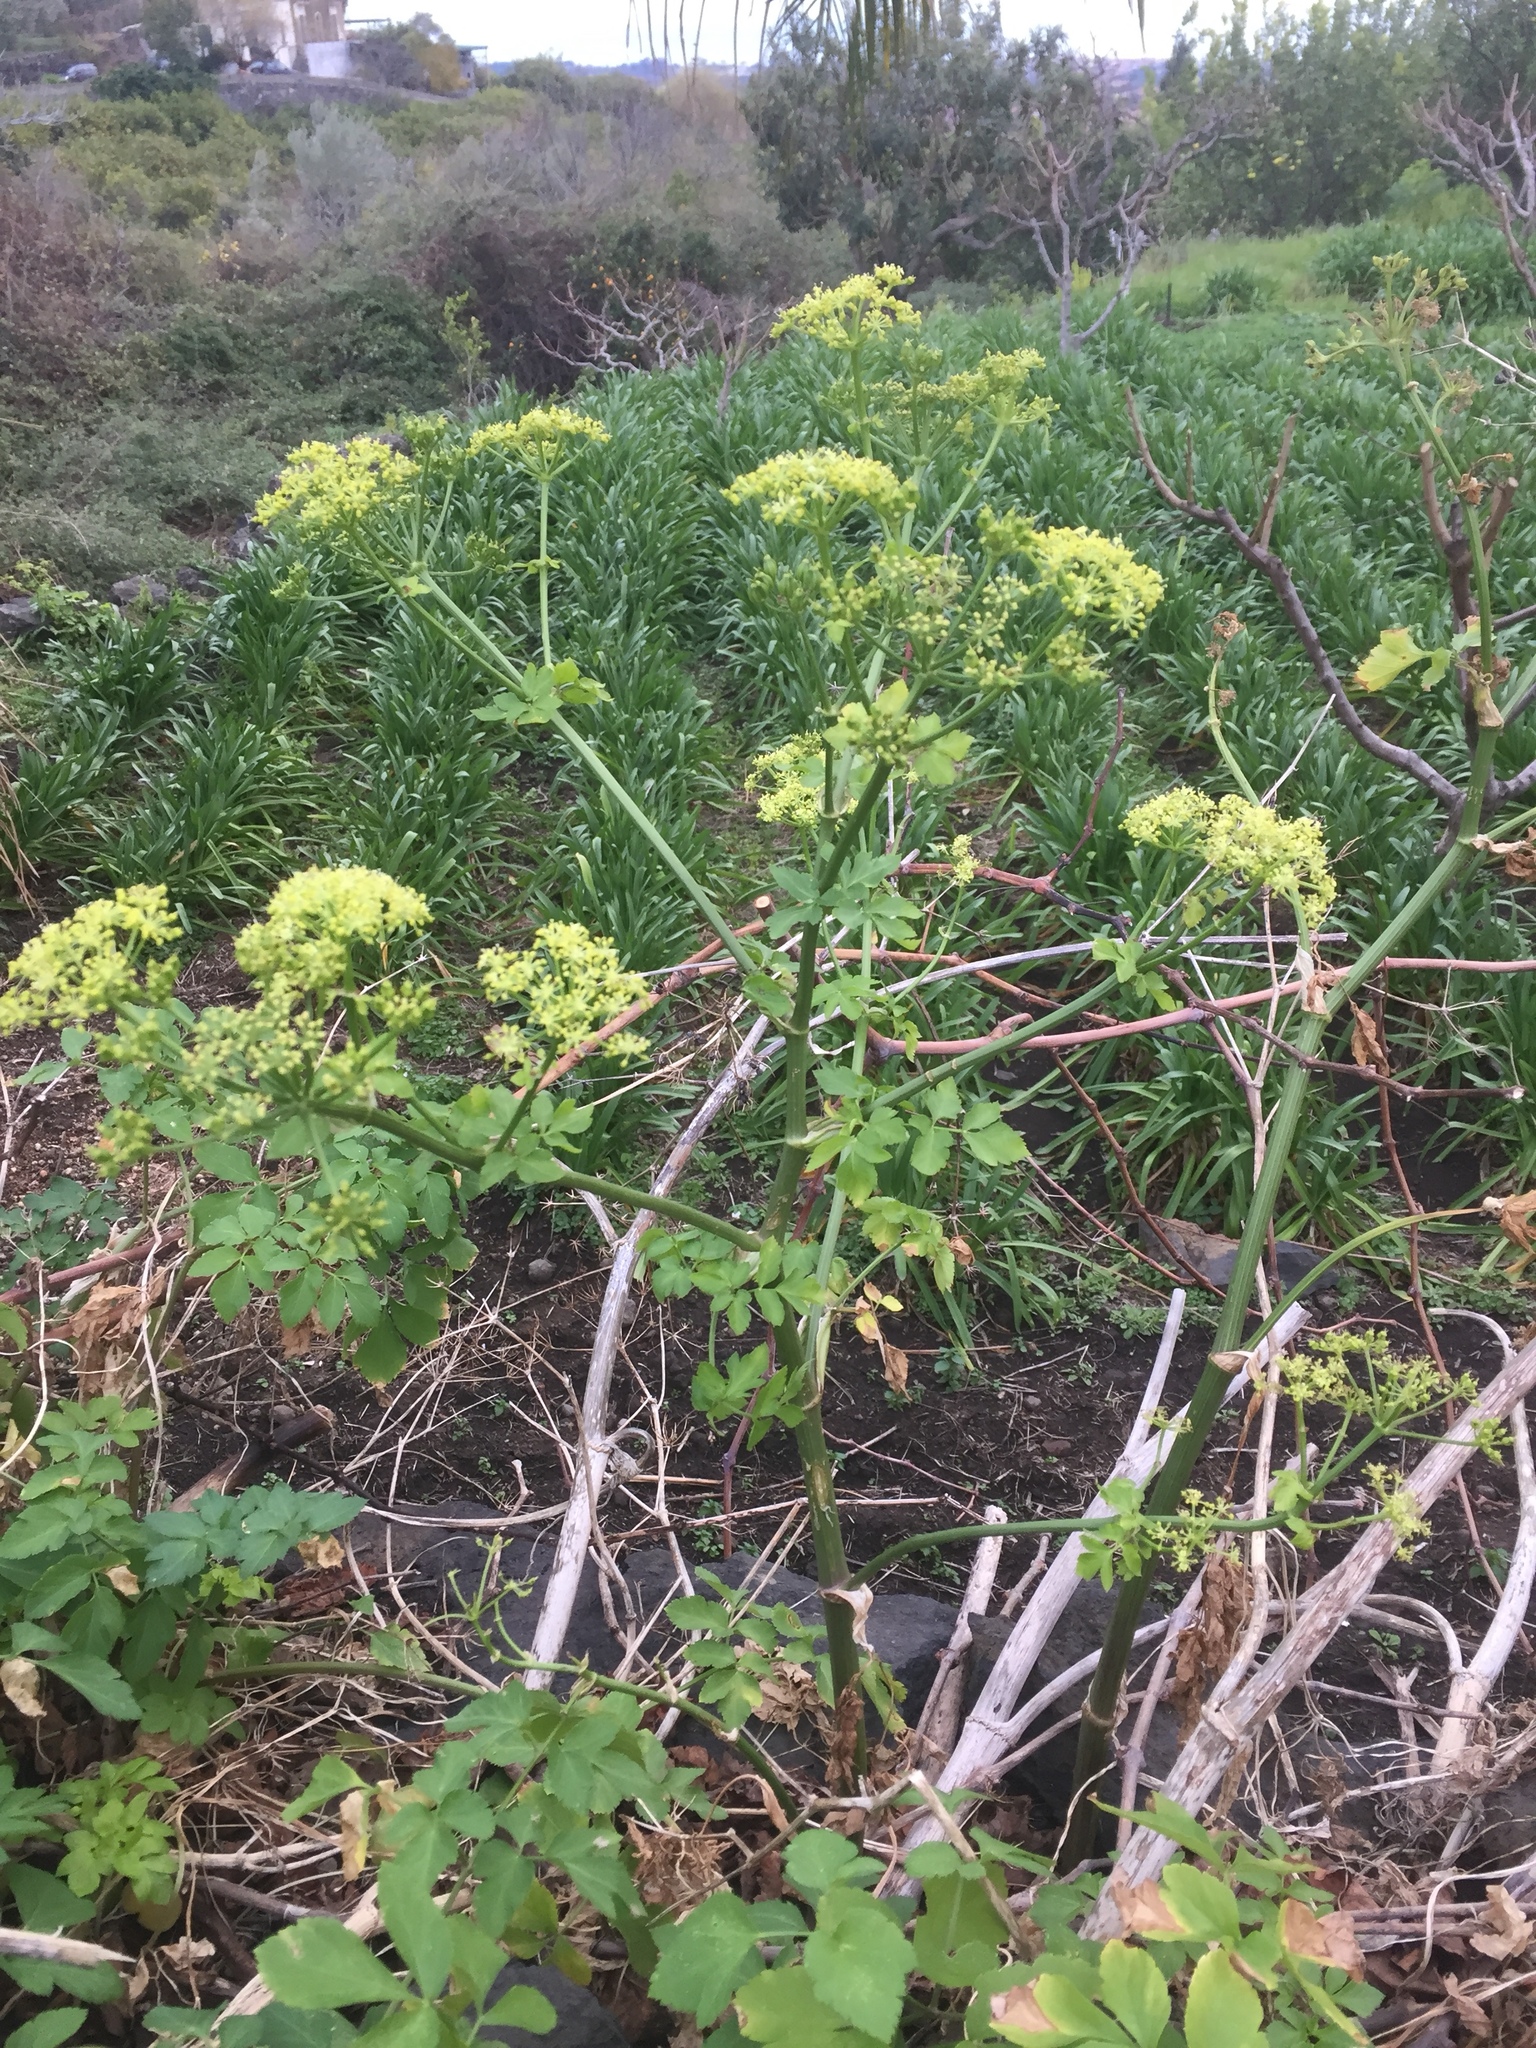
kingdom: Plantae
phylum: Tracheophyta
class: Magnoliopsida
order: Apiales
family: Apiaceae
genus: Smyrnium
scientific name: Smyrnium olusatrum
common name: Alexanders
